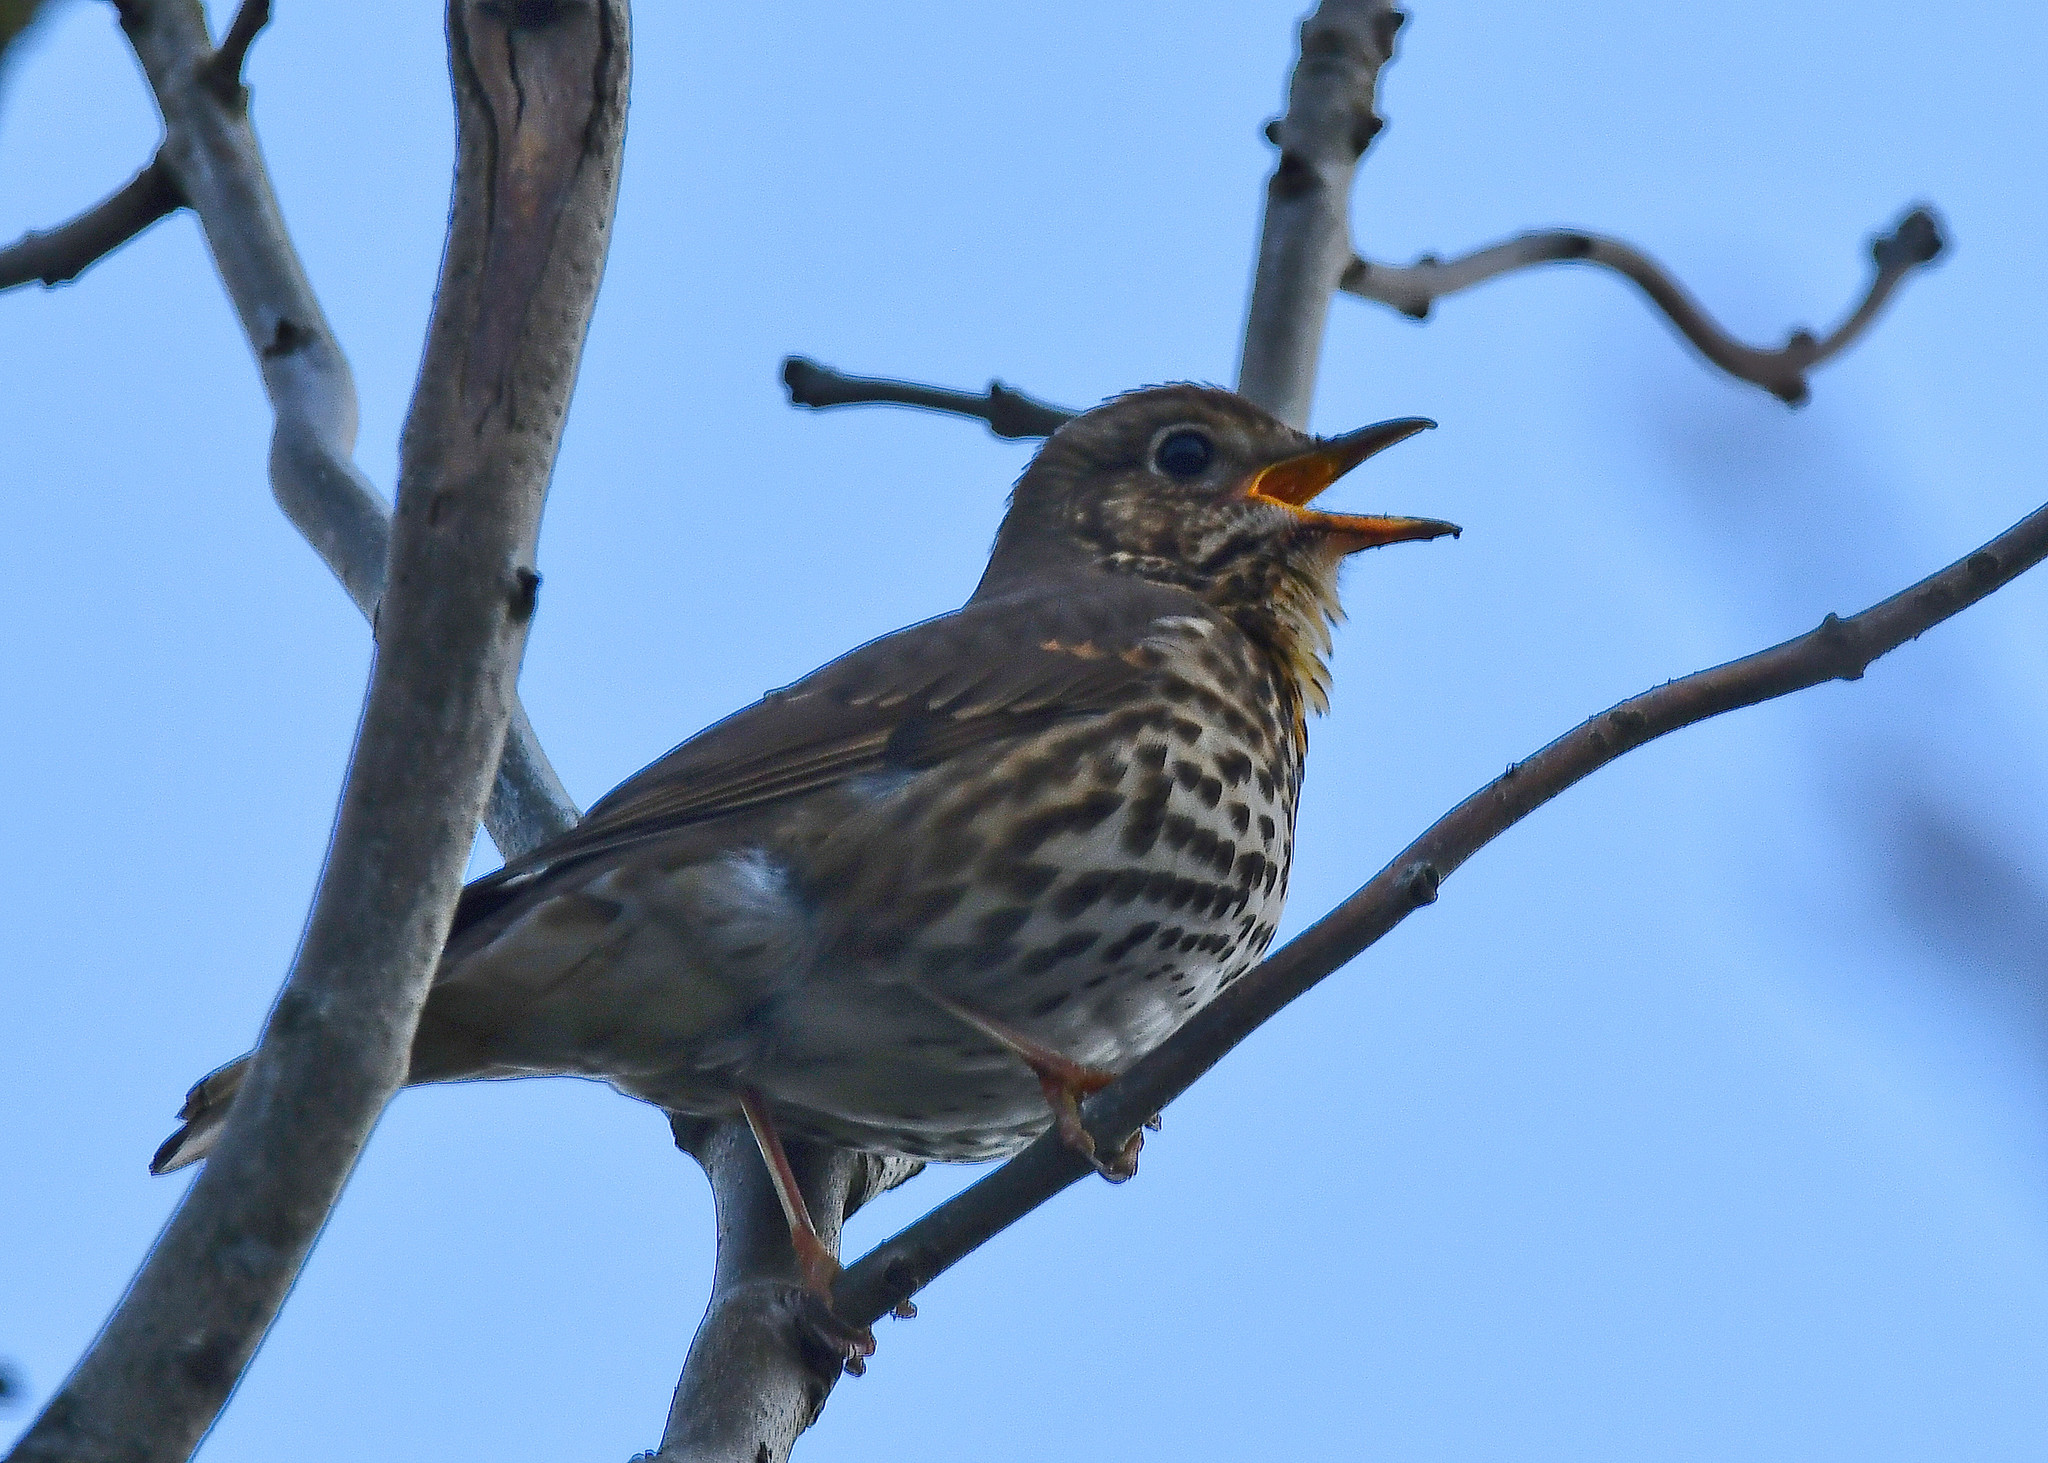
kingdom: Animalia
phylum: Chordata
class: Aves
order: Passeriformes
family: Turdidae
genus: Turdus
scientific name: Turdus philomelos
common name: Song thrush
